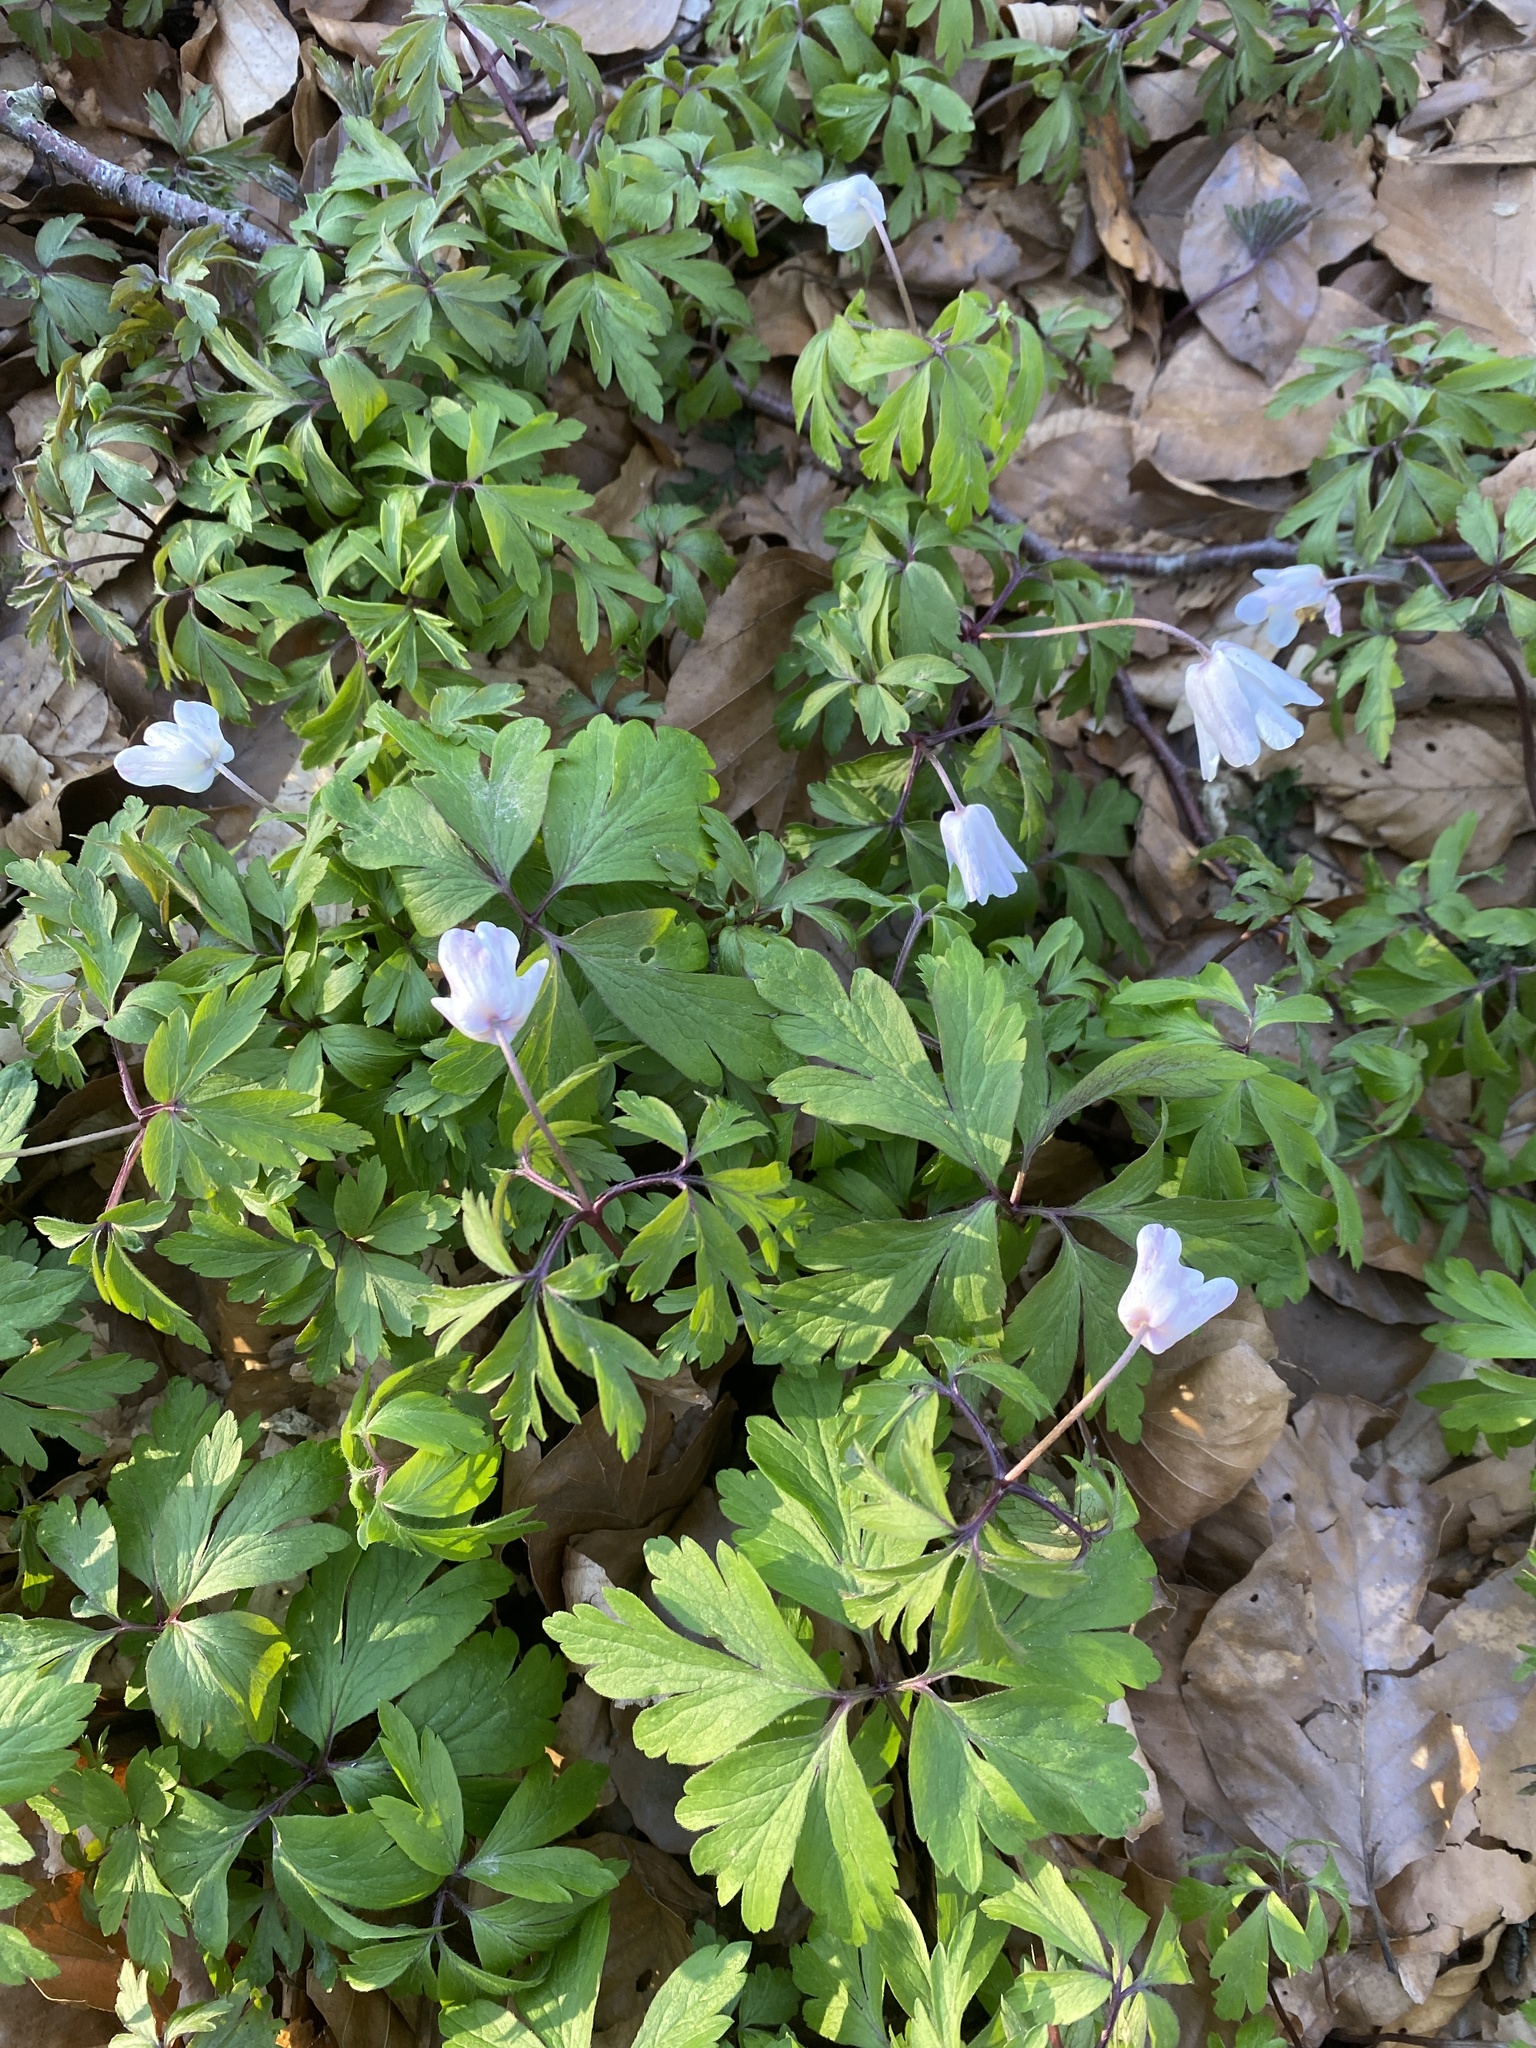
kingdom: Plantae
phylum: Tracheophyta
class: Magnoliopsida
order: Ranunculales
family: Ranunculaceae
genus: Anemone
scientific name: Anemone nemorosa
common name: Wood anemone
